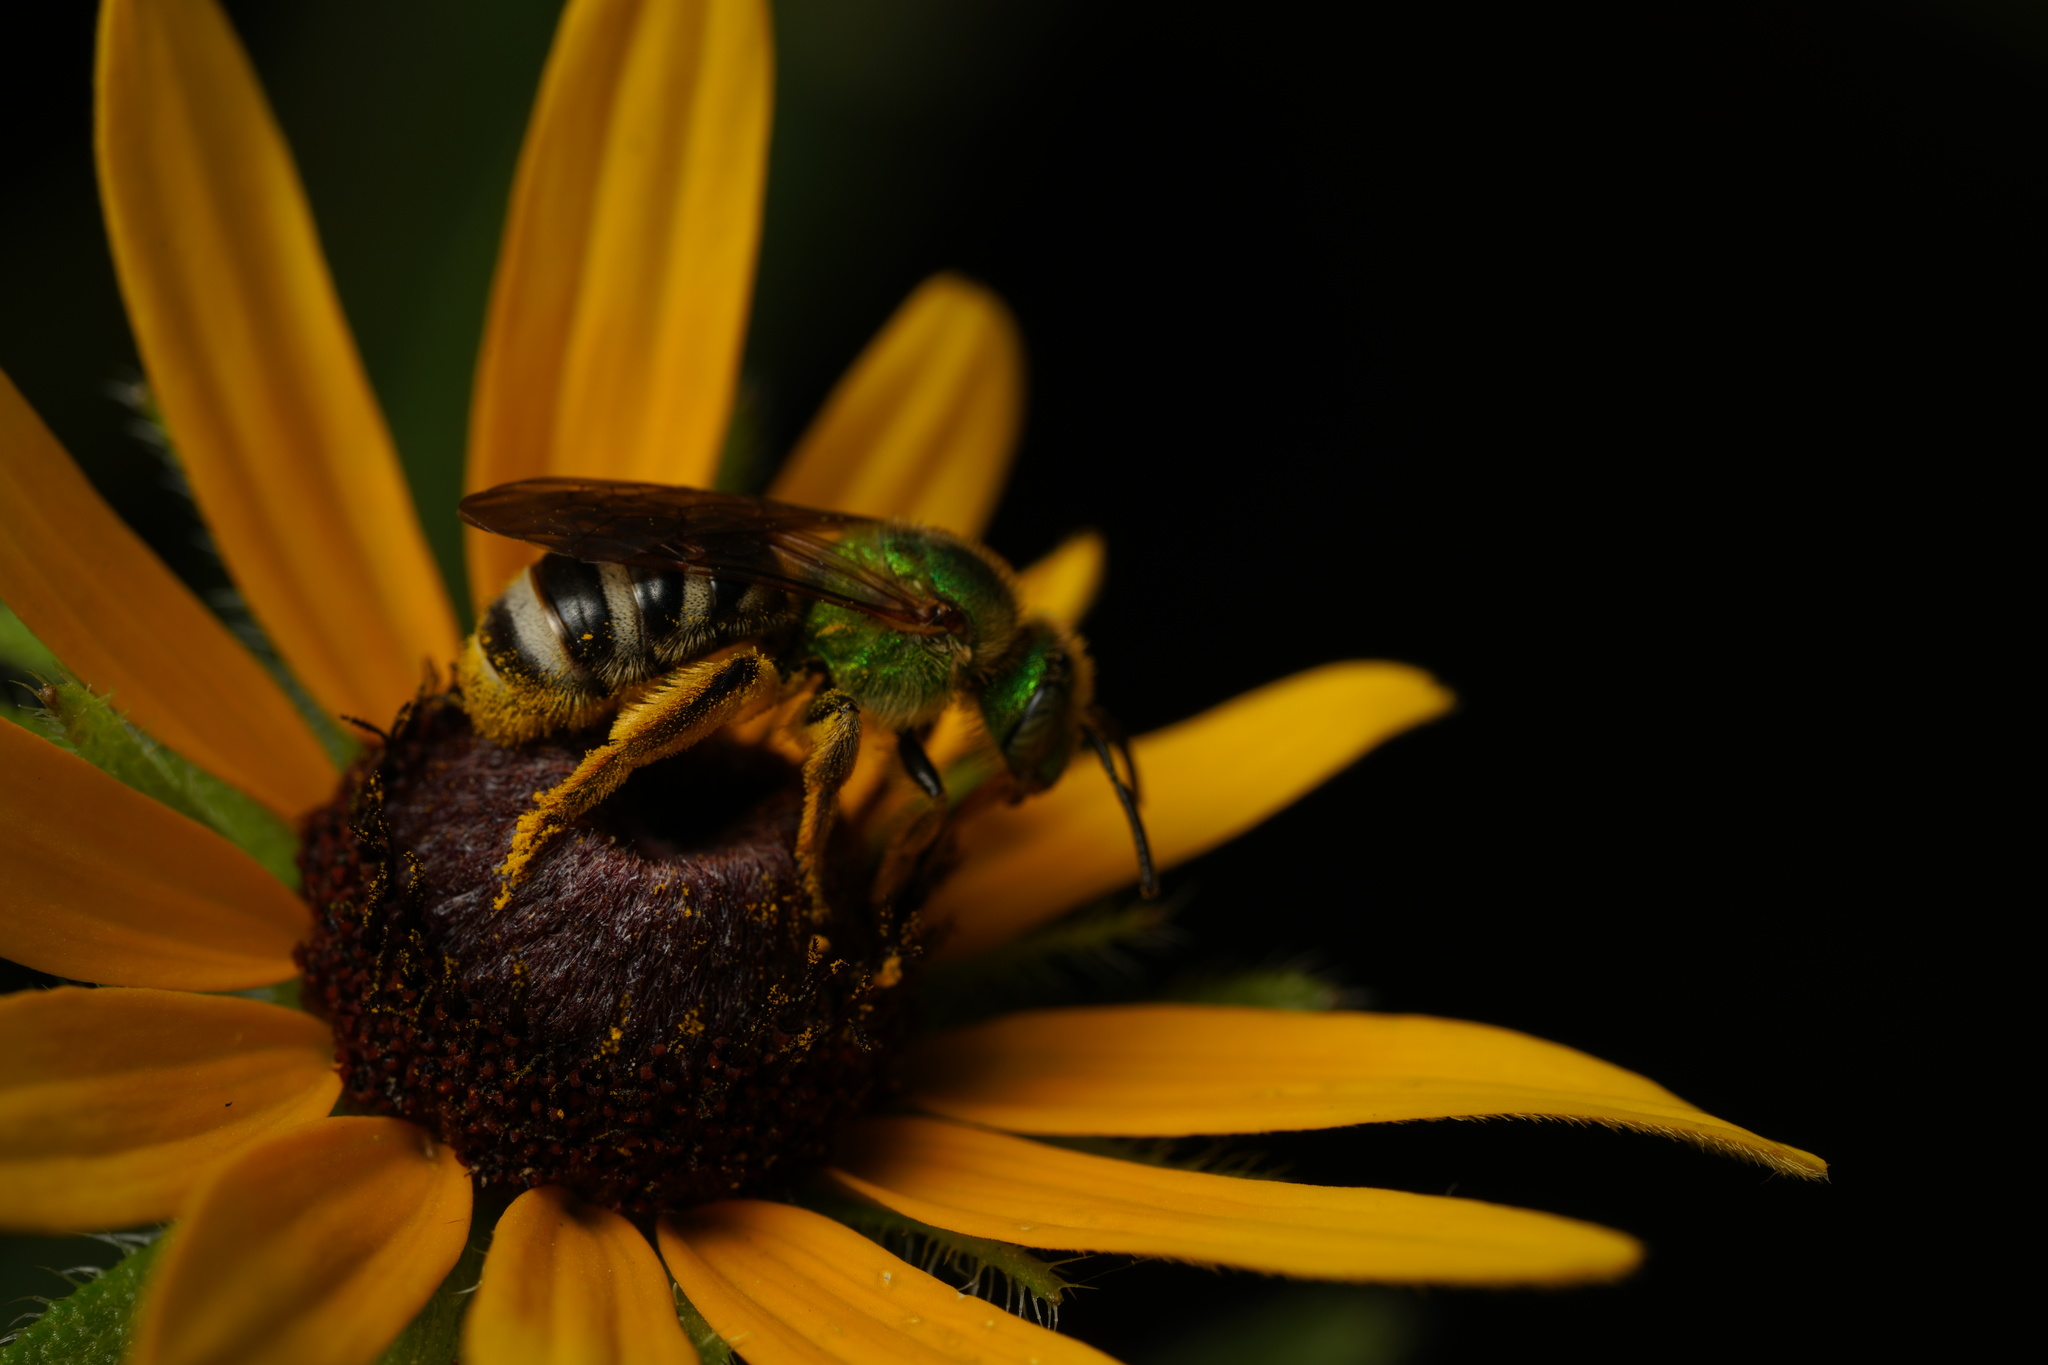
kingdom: Animalia
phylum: Arthropoda
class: Insecta
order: Hymenoptera
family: Halictidae
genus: Agapostemon
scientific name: Agapostemon virescens
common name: Bicolored striped sweat bee
